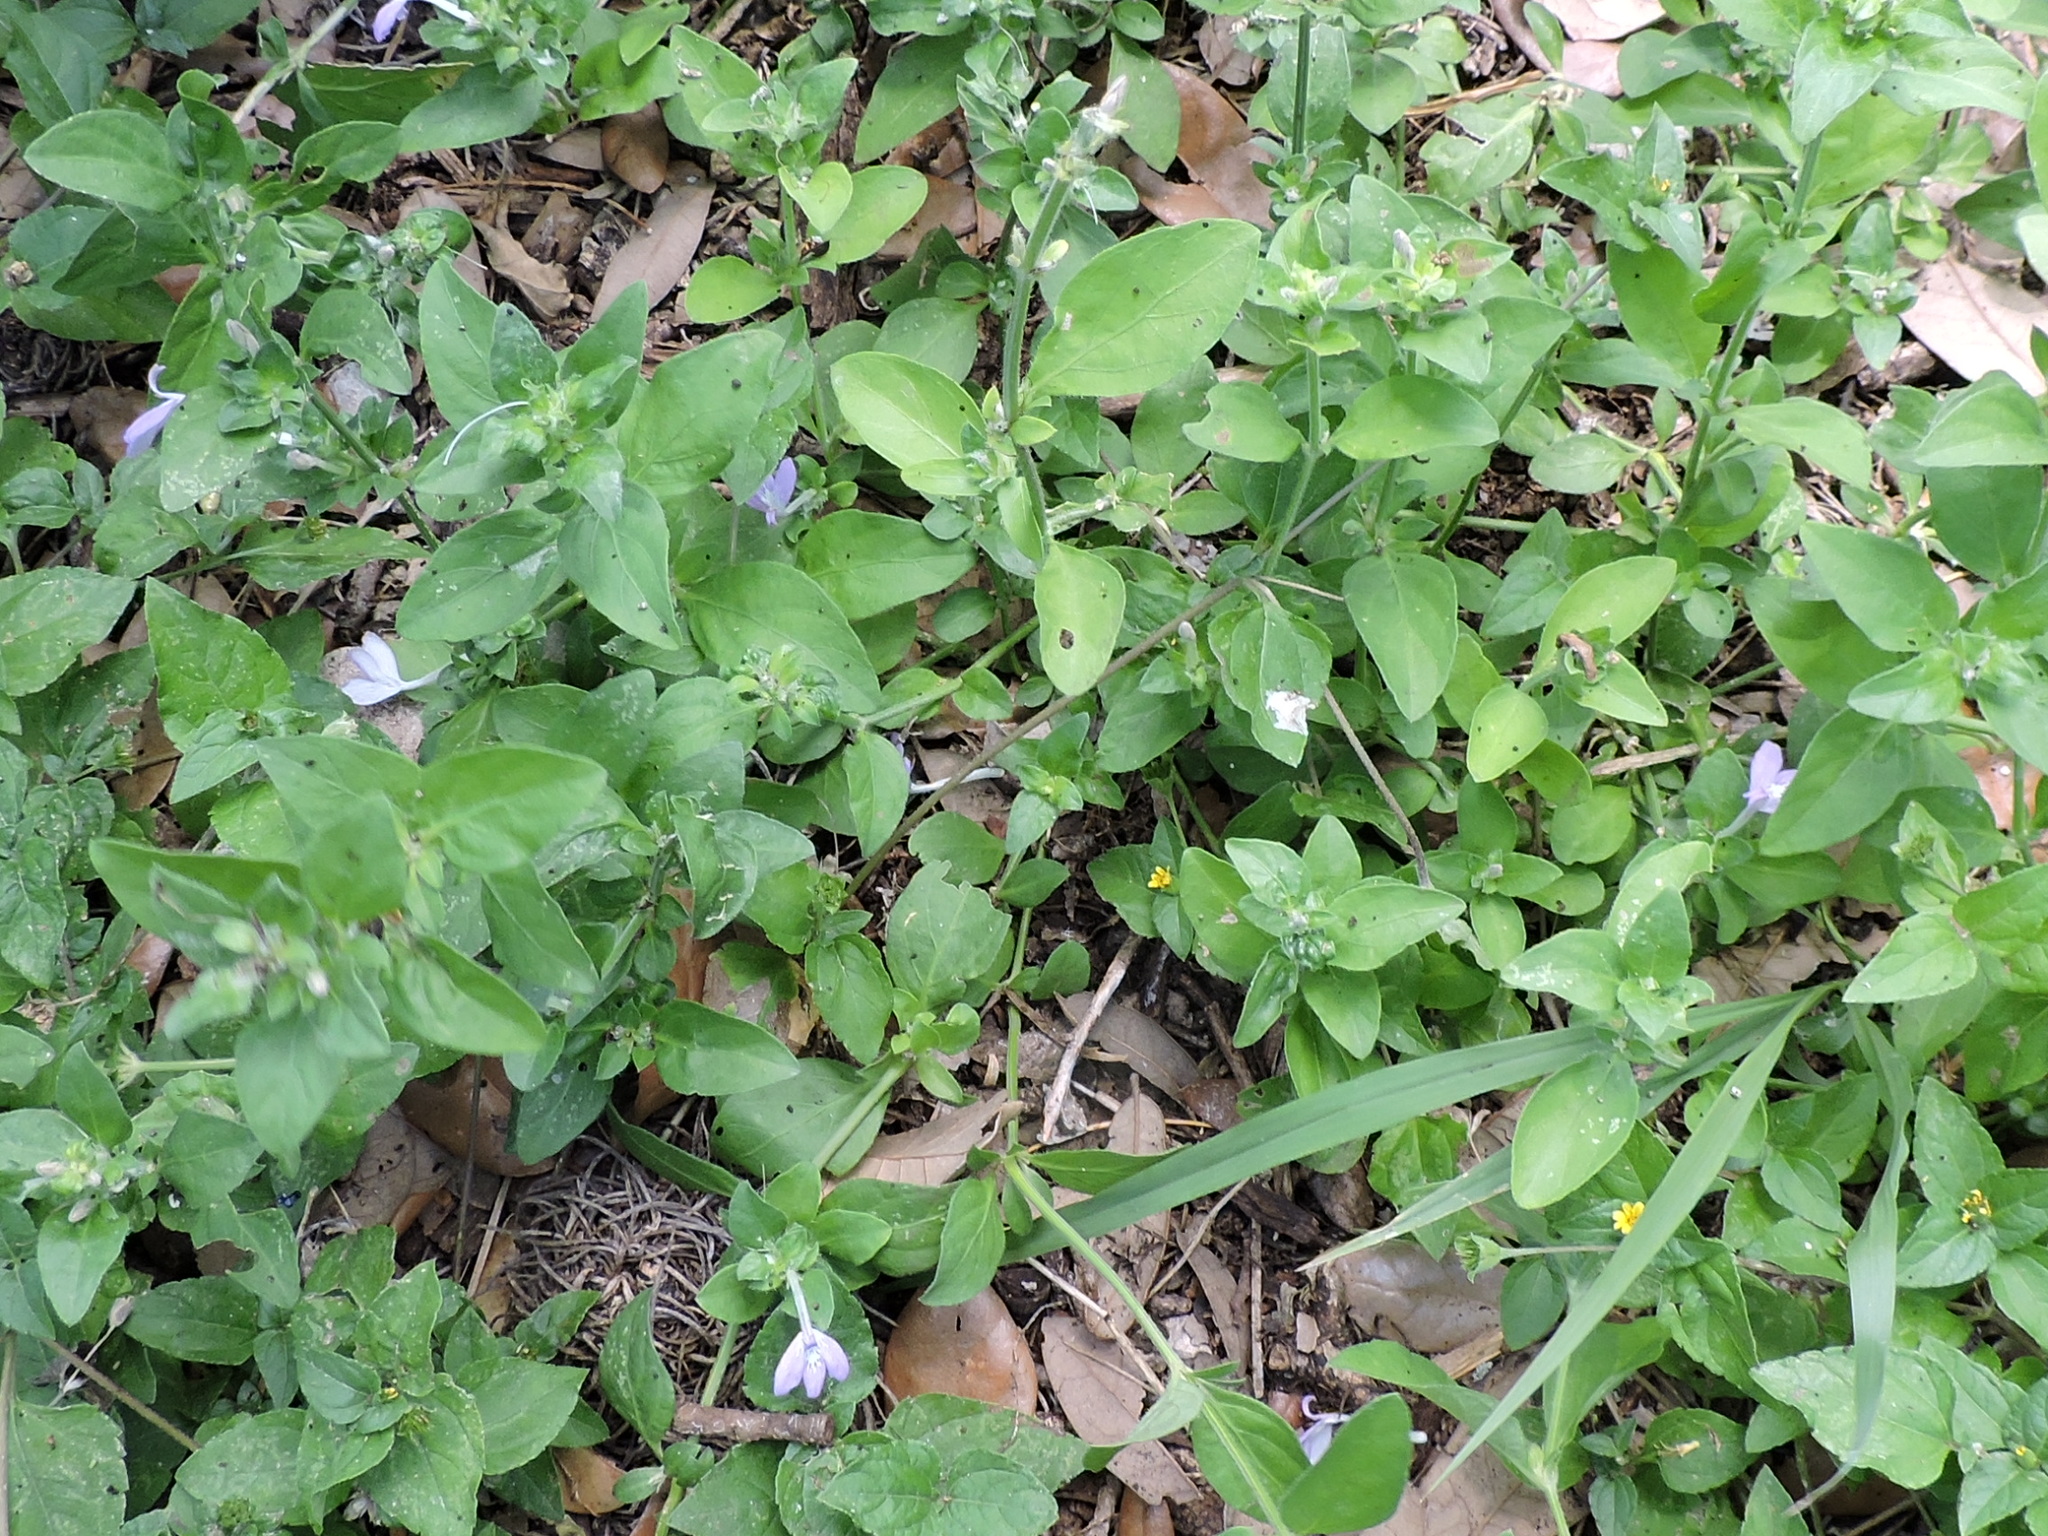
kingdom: Plantae
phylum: Tracheophyta
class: Magnoliopsida
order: Lamiales
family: Acanthaceae
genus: Justicia
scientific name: Justicia pilosella
